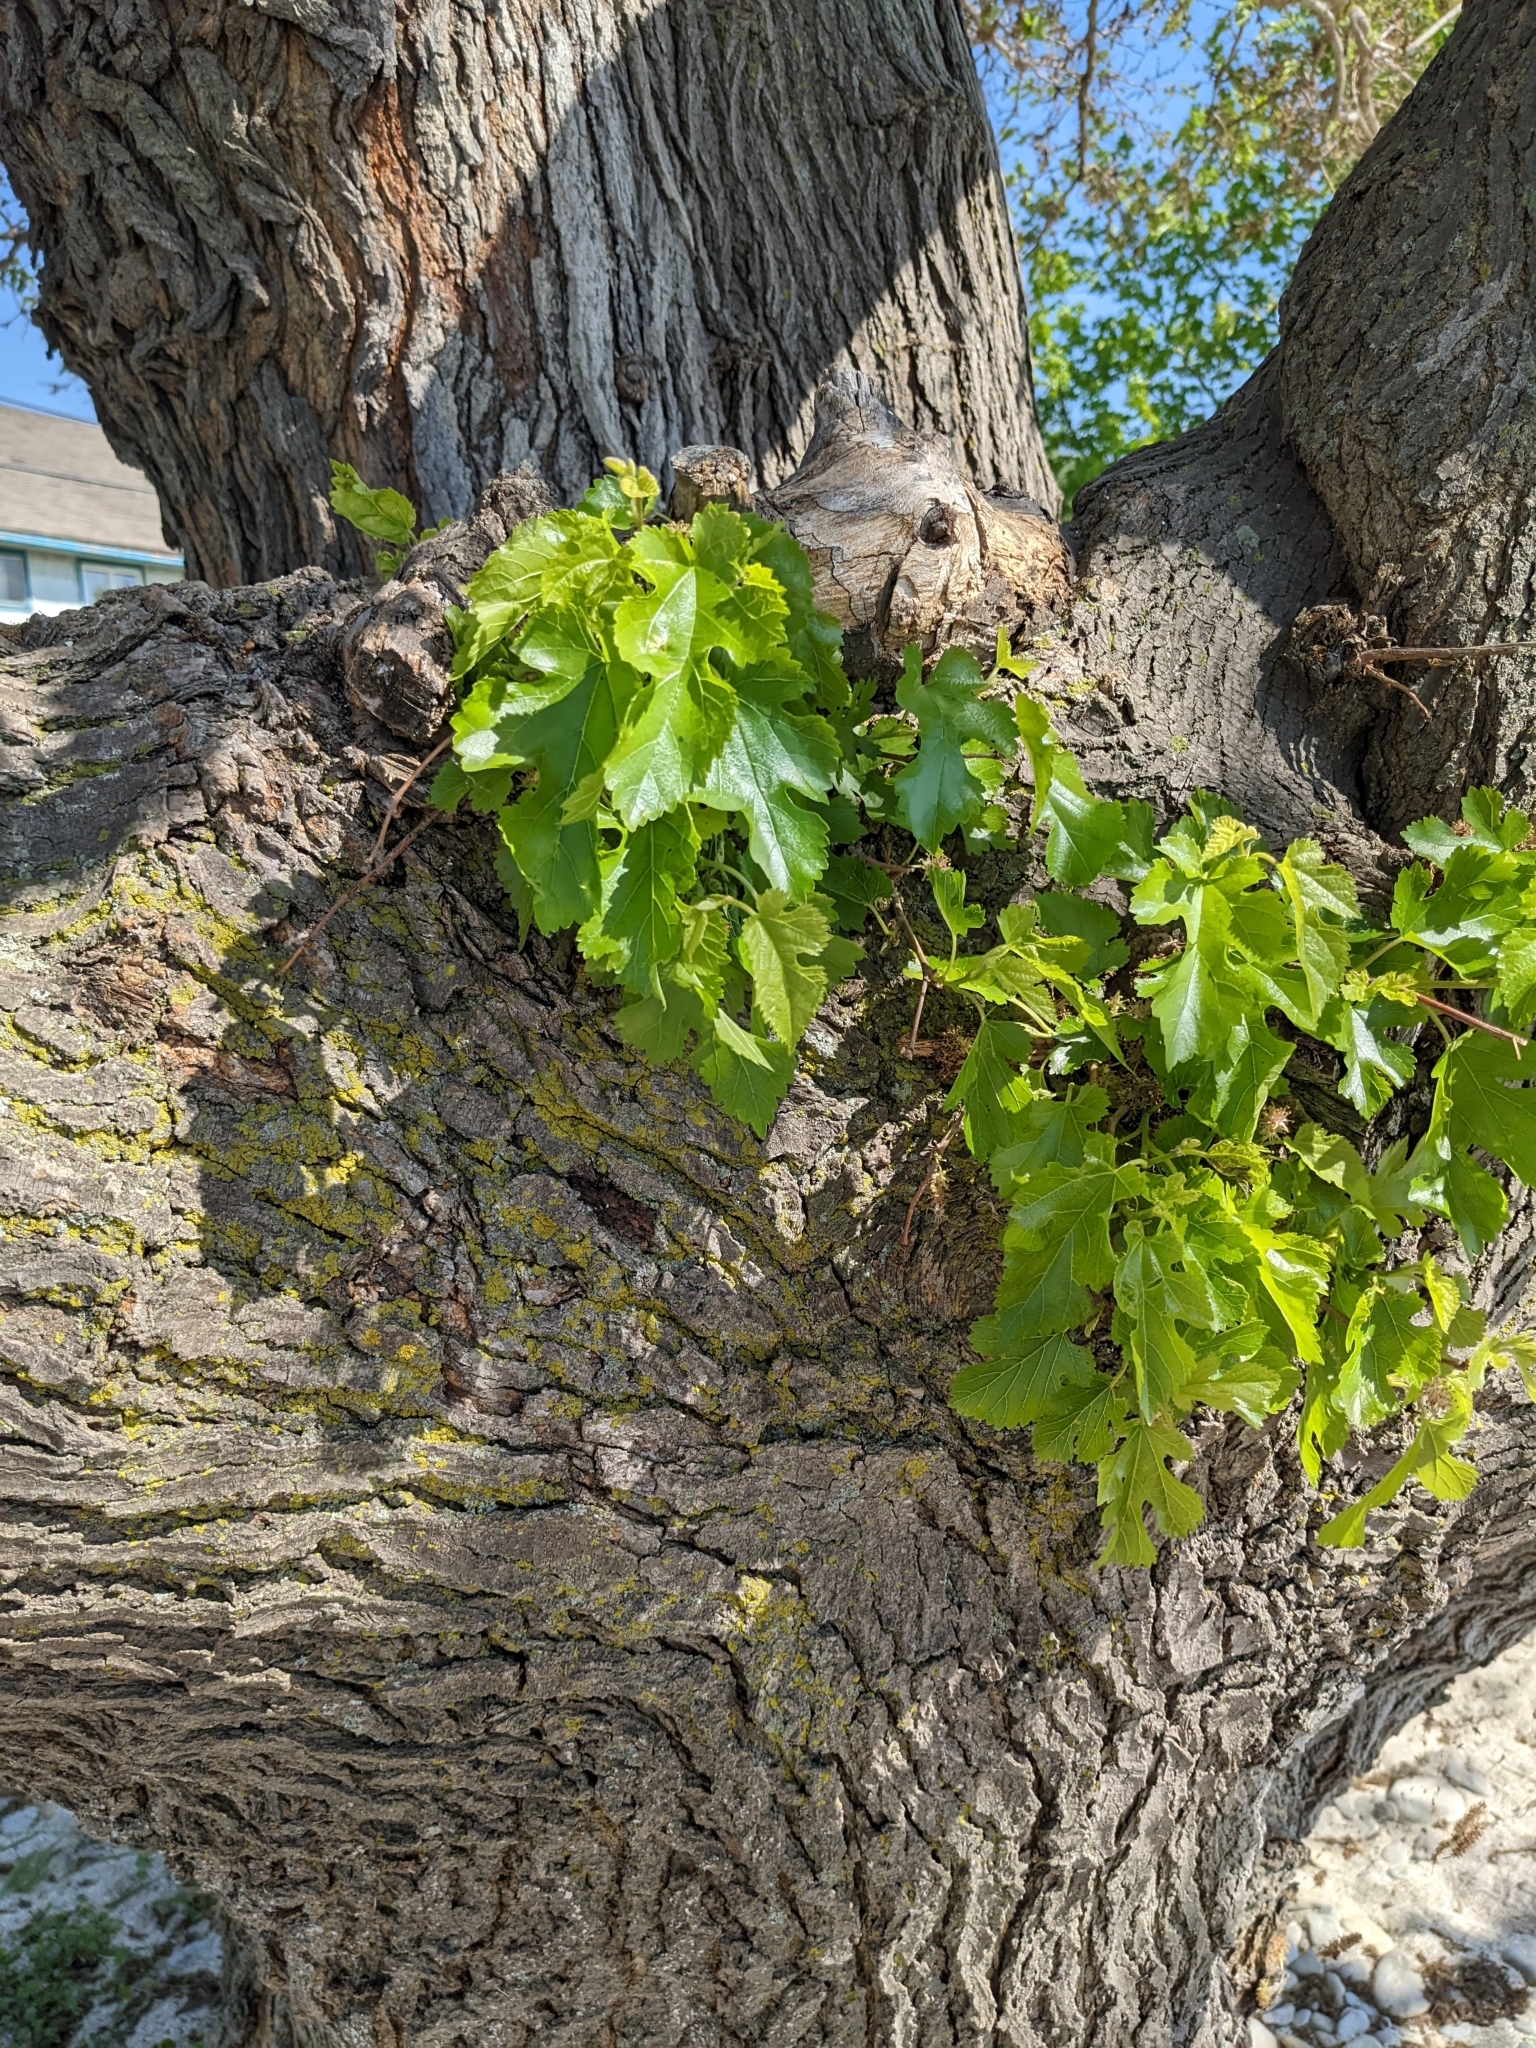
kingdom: Plantae
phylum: Tracheophyta
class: Magnoliopsida
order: Rosales
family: Moraceae
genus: Morus
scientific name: Morus alba
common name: White mulberry
